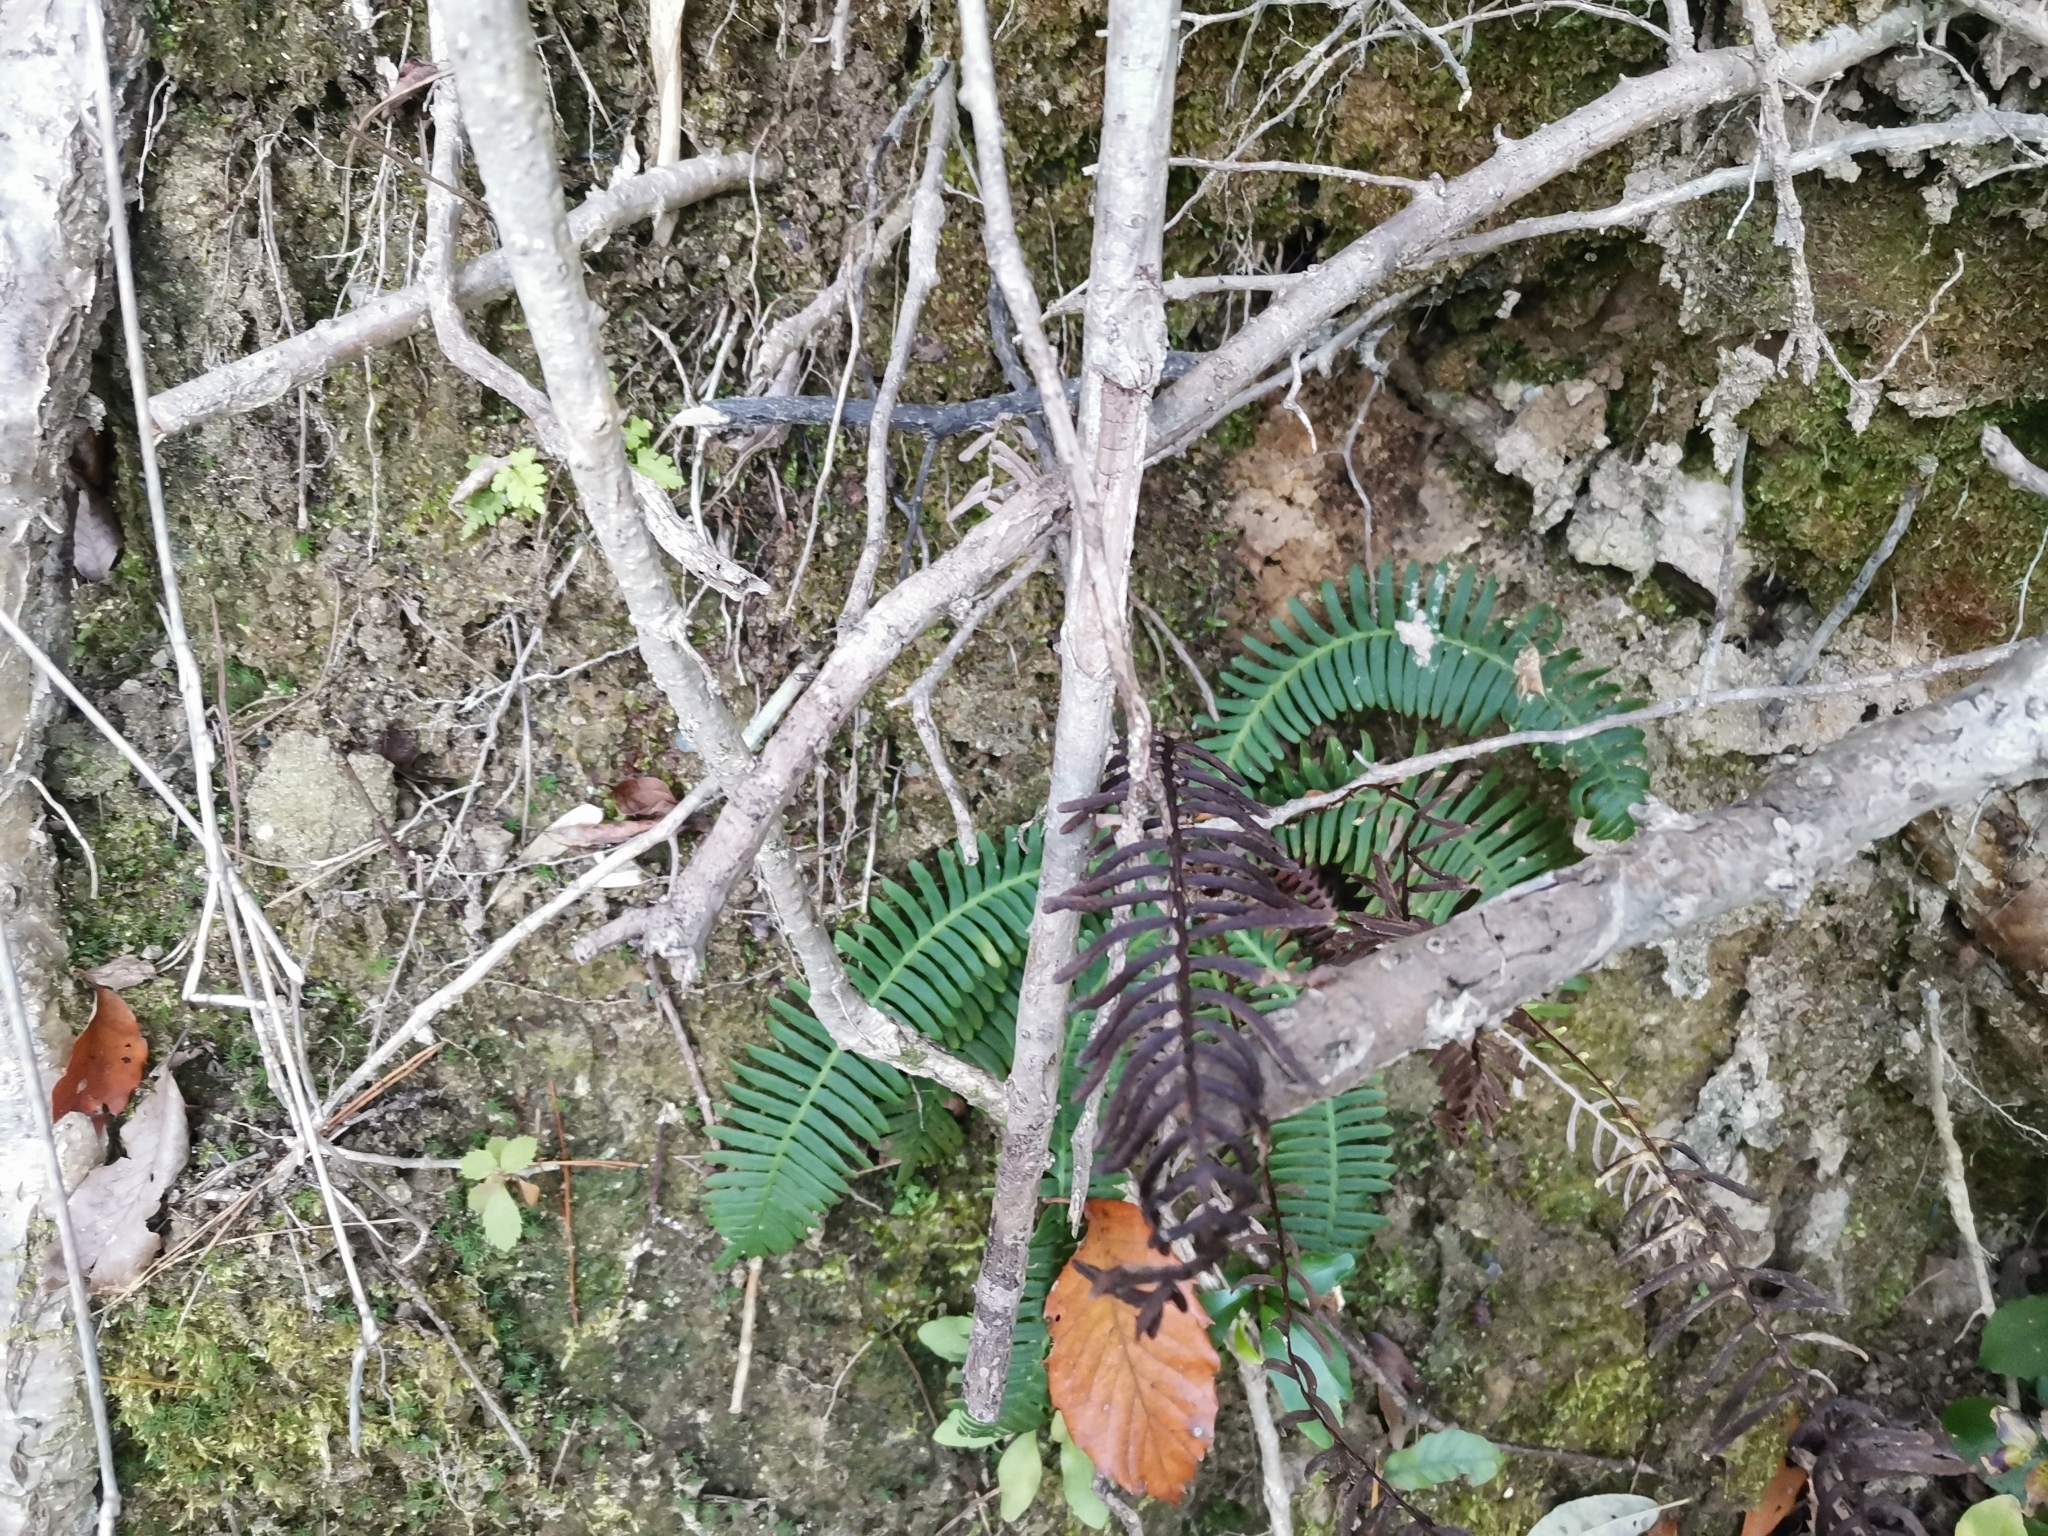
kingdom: Plantae
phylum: Tracheophyta
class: Polypodiopsida
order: Polypodiales
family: Blechnaceae
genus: Spicantopsis
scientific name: Spicantopsis niponica
